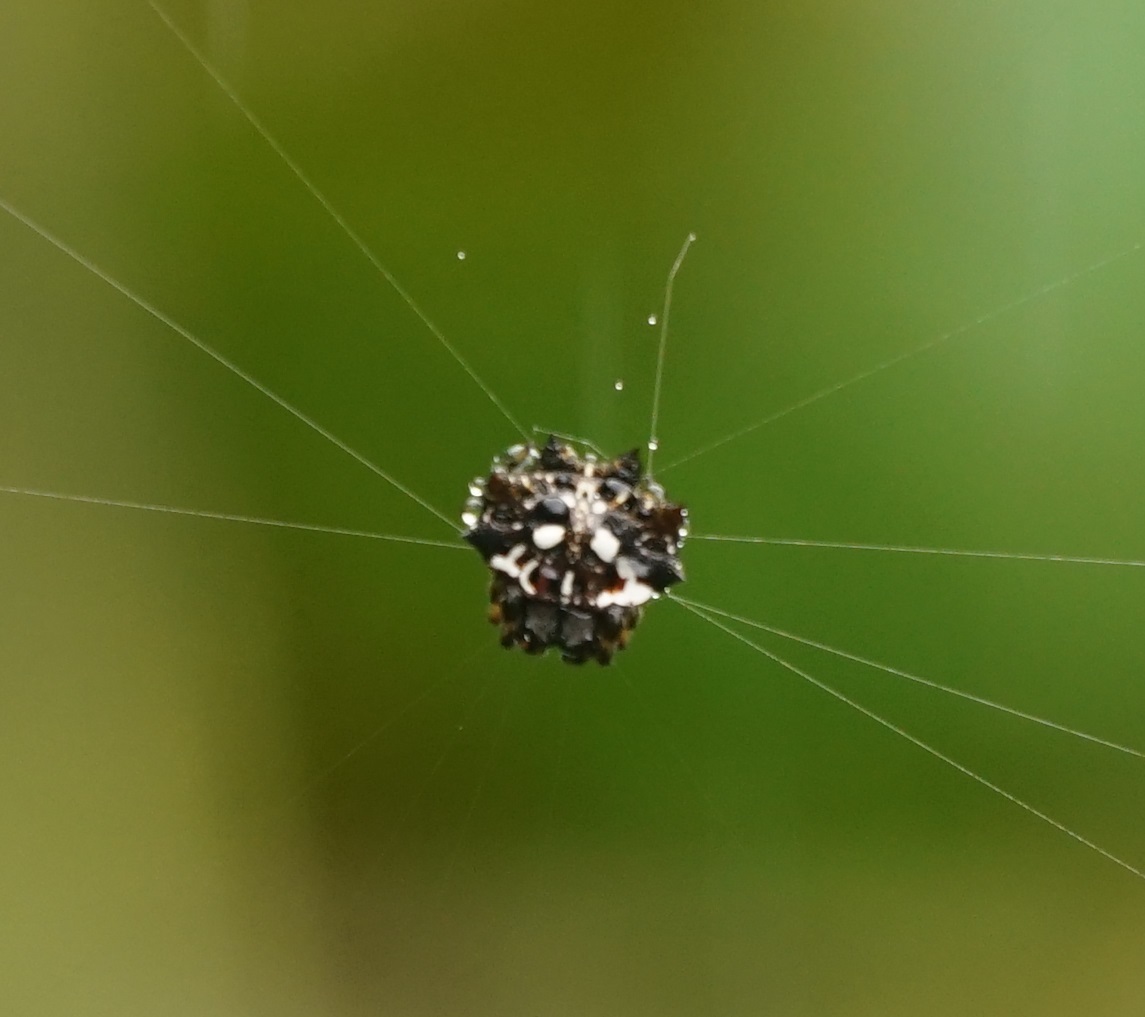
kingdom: Animalia
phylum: Arthropoda
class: Arachnida
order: Araneae
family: Araneidae
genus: Thelacantha
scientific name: Thelacantha brevispina
